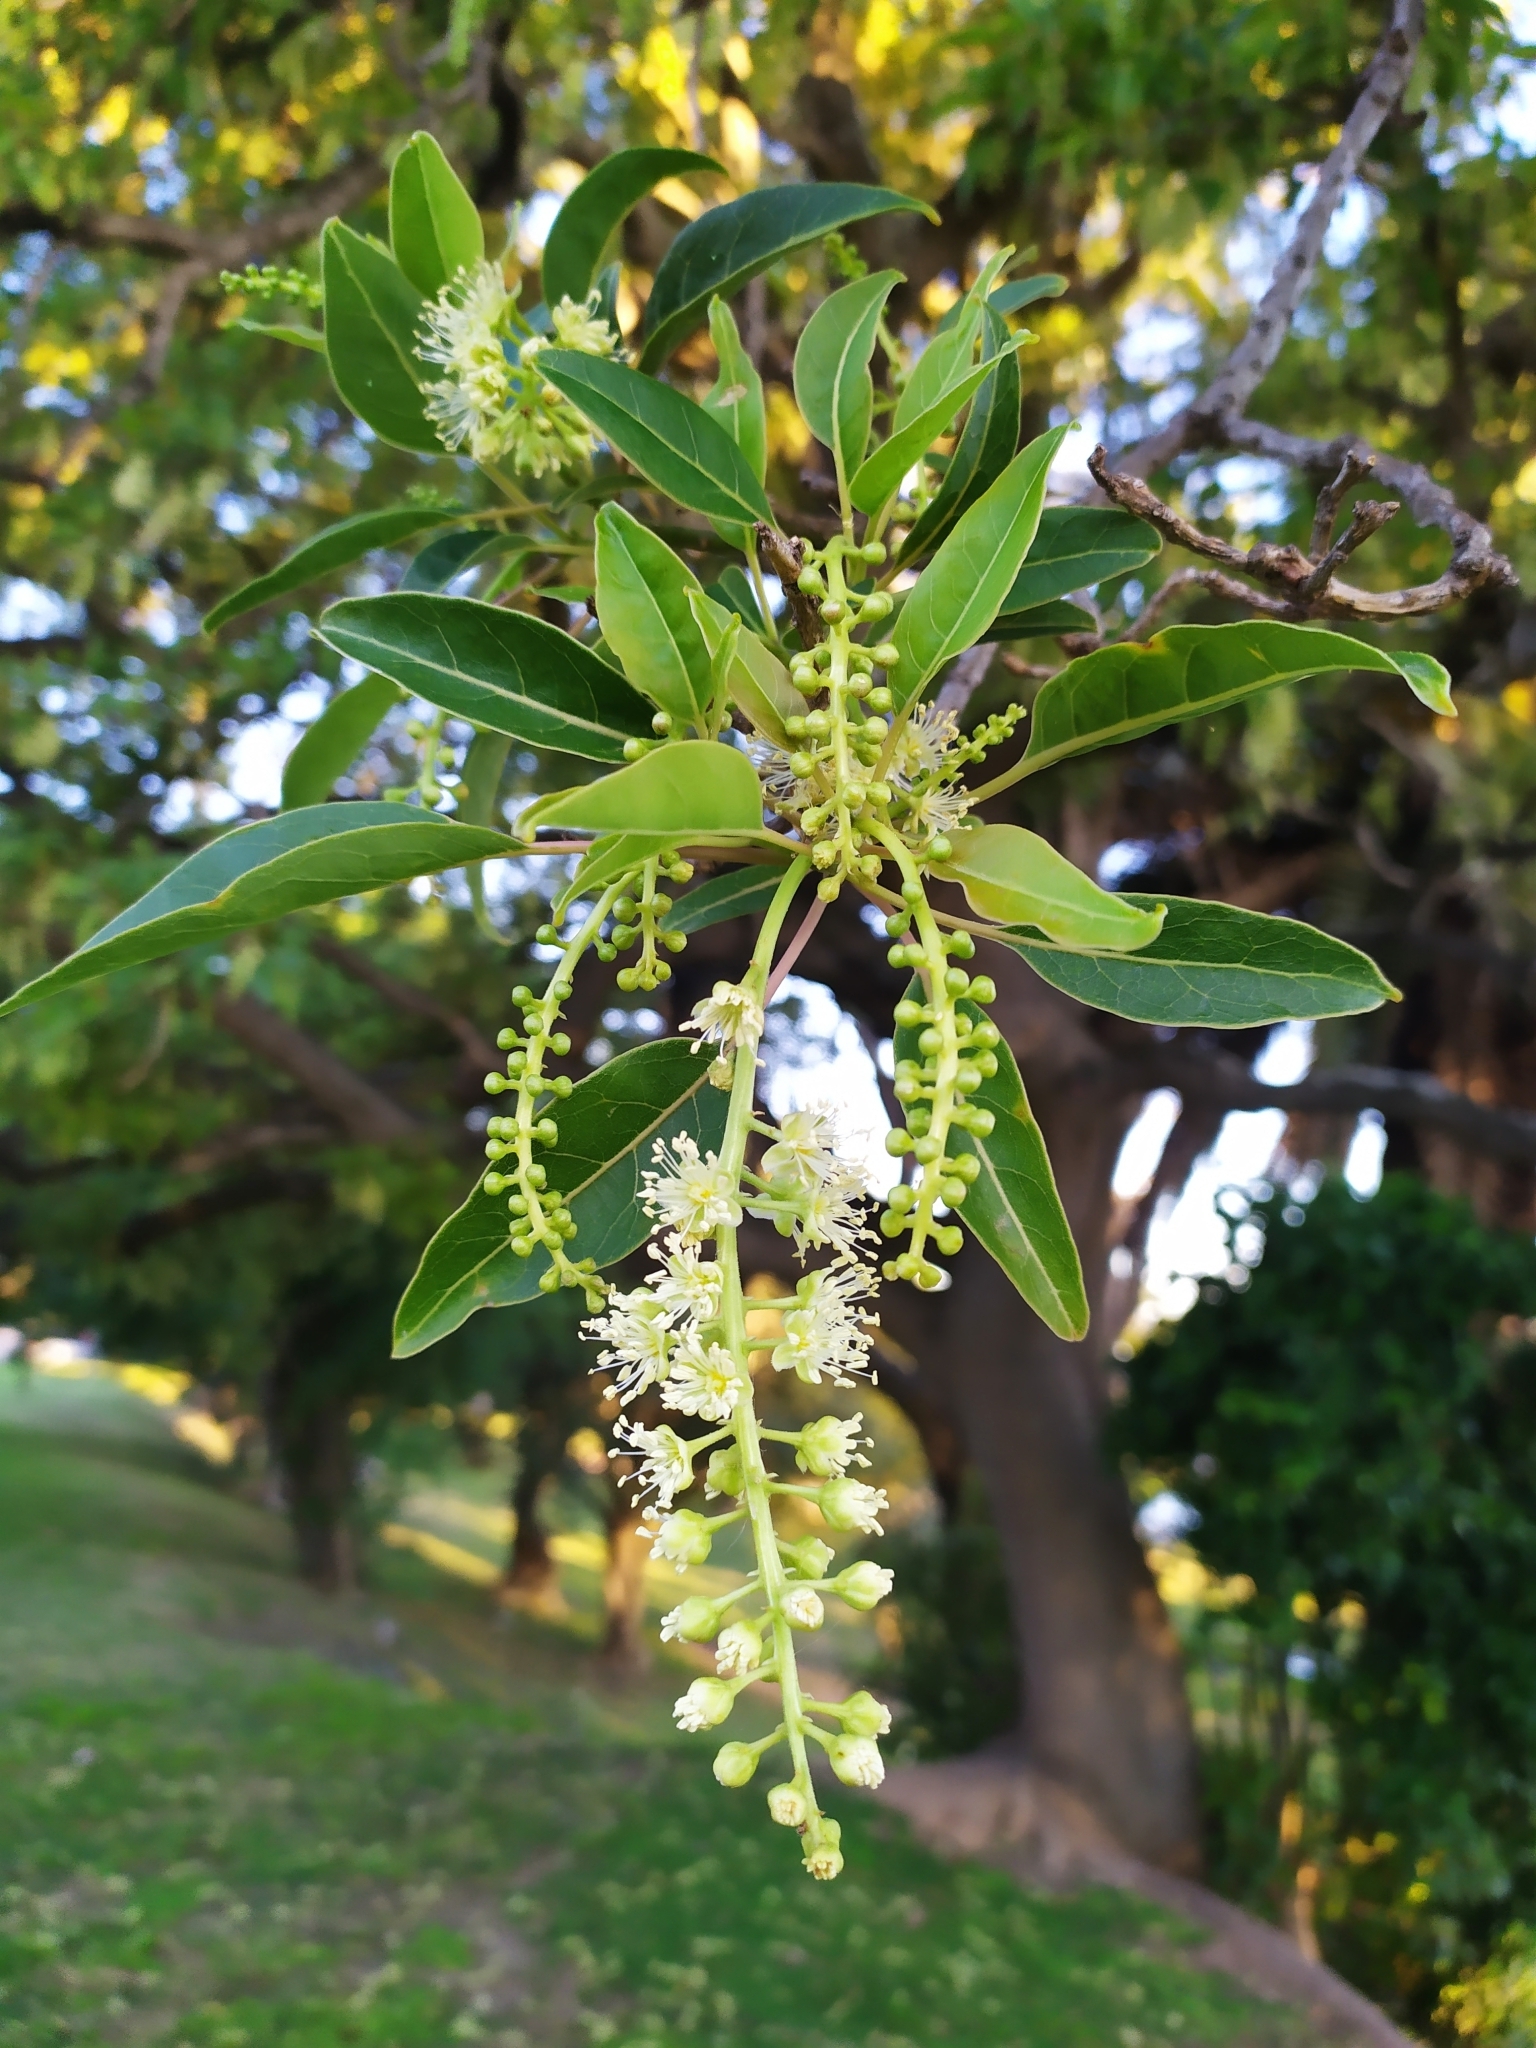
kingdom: Plantae
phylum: Tracheophyta
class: Magnoliopsida
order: Caryophyllales
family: Phytolaccaceae
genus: Phytolacca
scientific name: Phytolacca dioica
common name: Pokeweed
